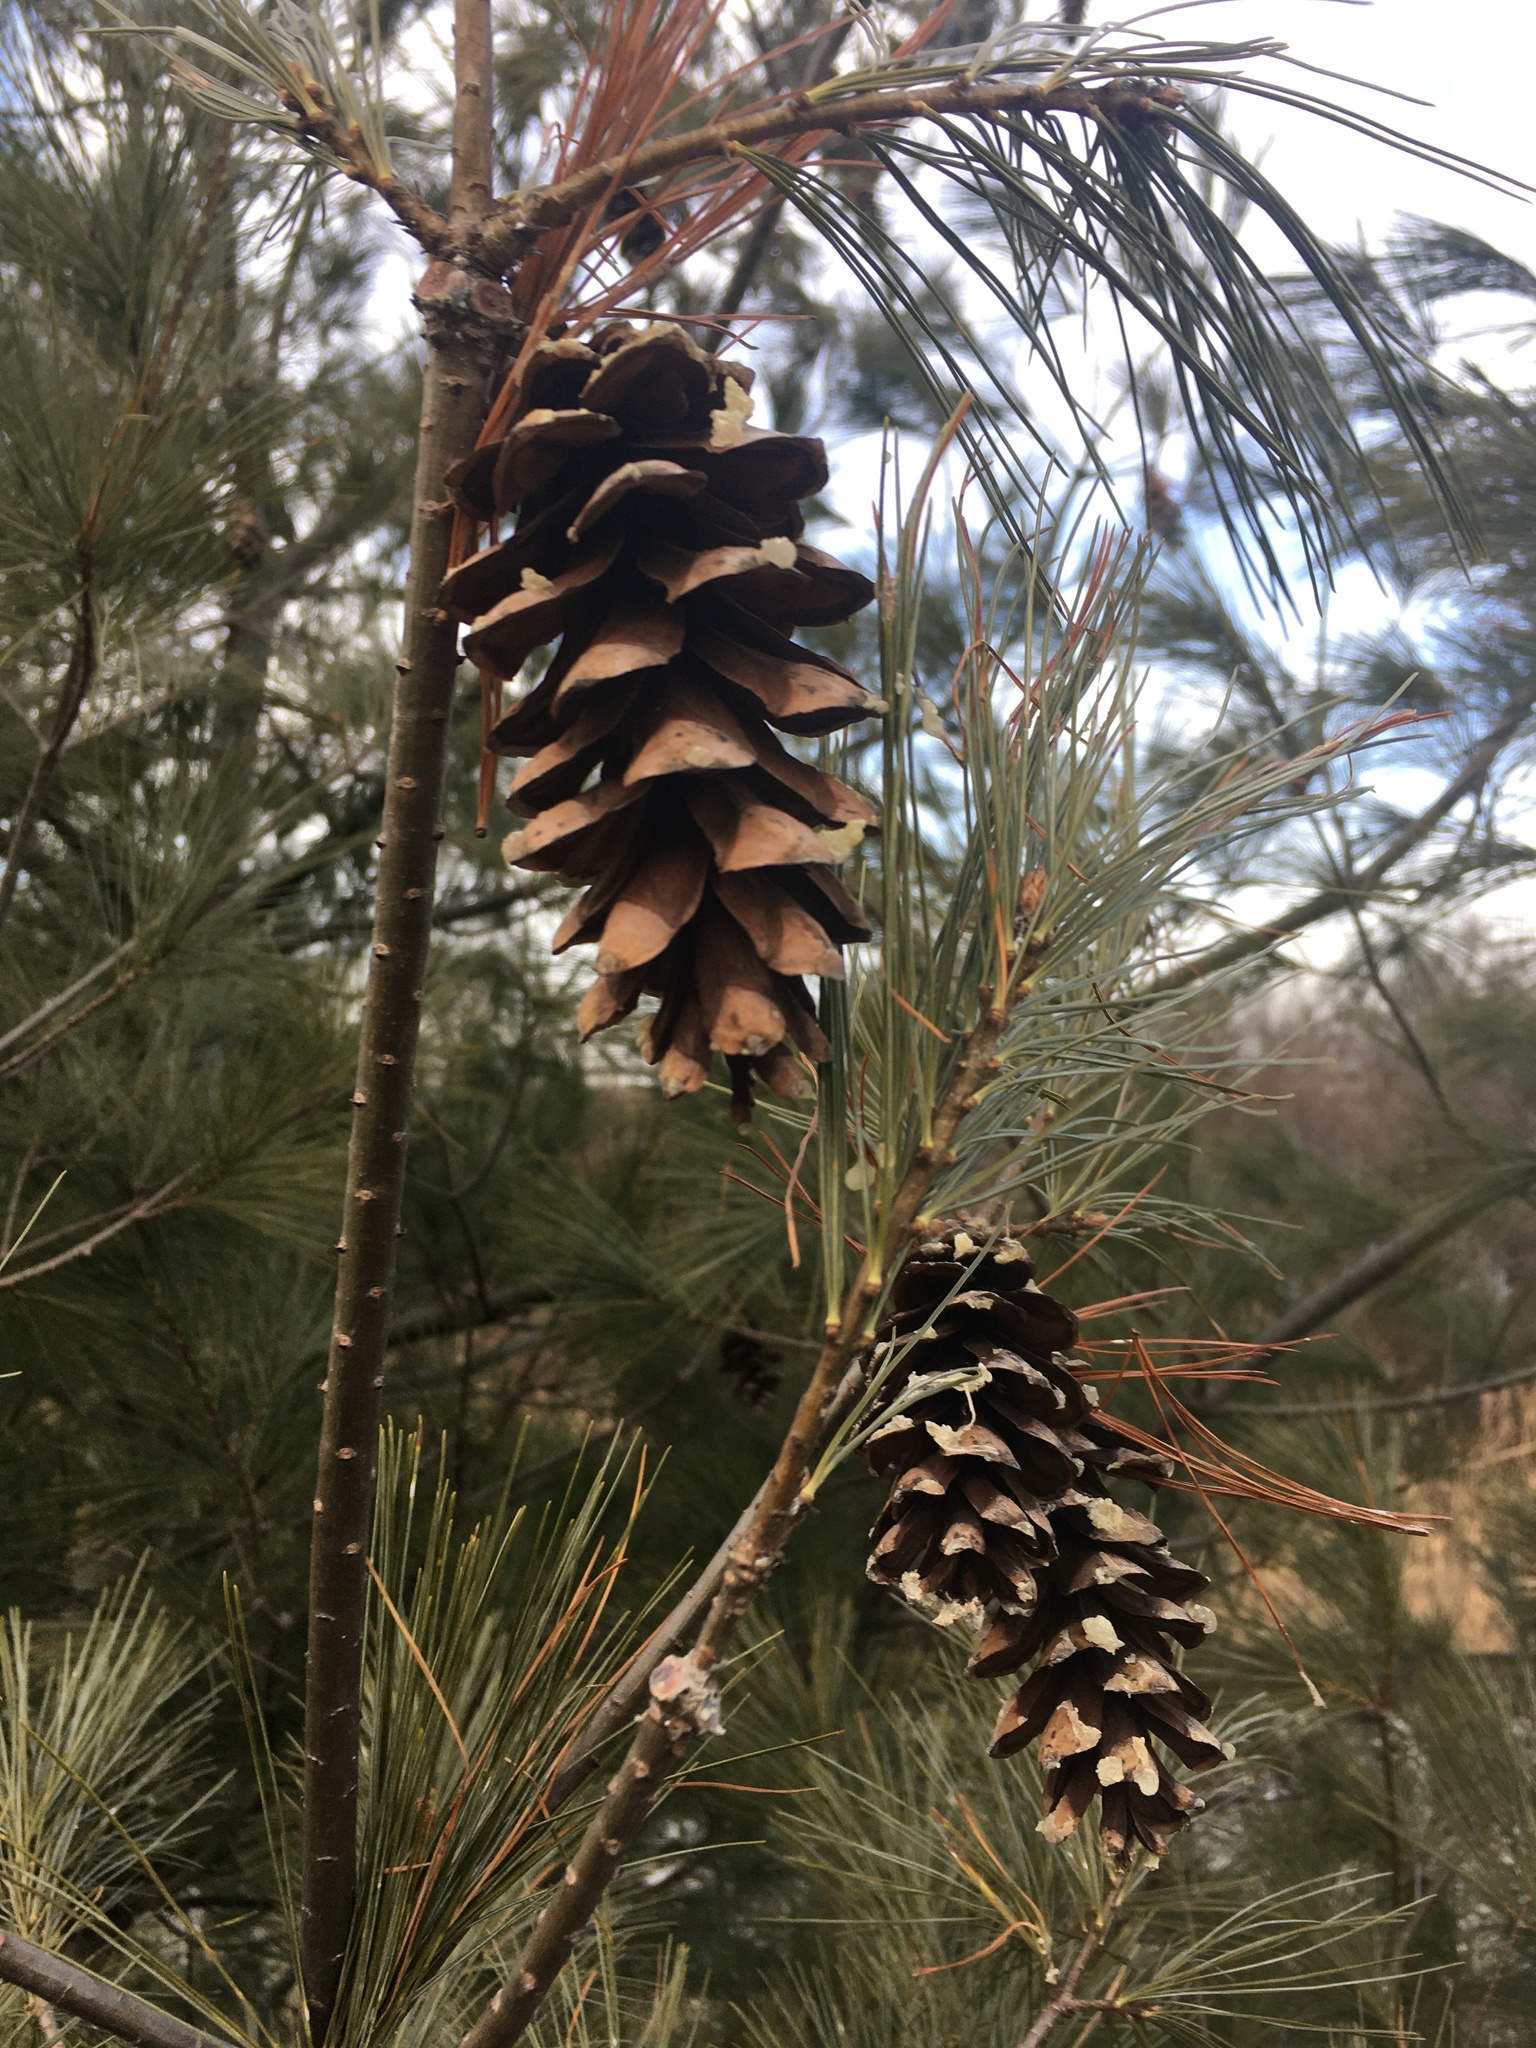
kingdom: Plantae
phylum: Tracheophyta
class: Pinopsida
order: Pinales
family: Pinaceae
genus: Pinus
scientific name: Pinus strobus
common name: Weymouth pine
